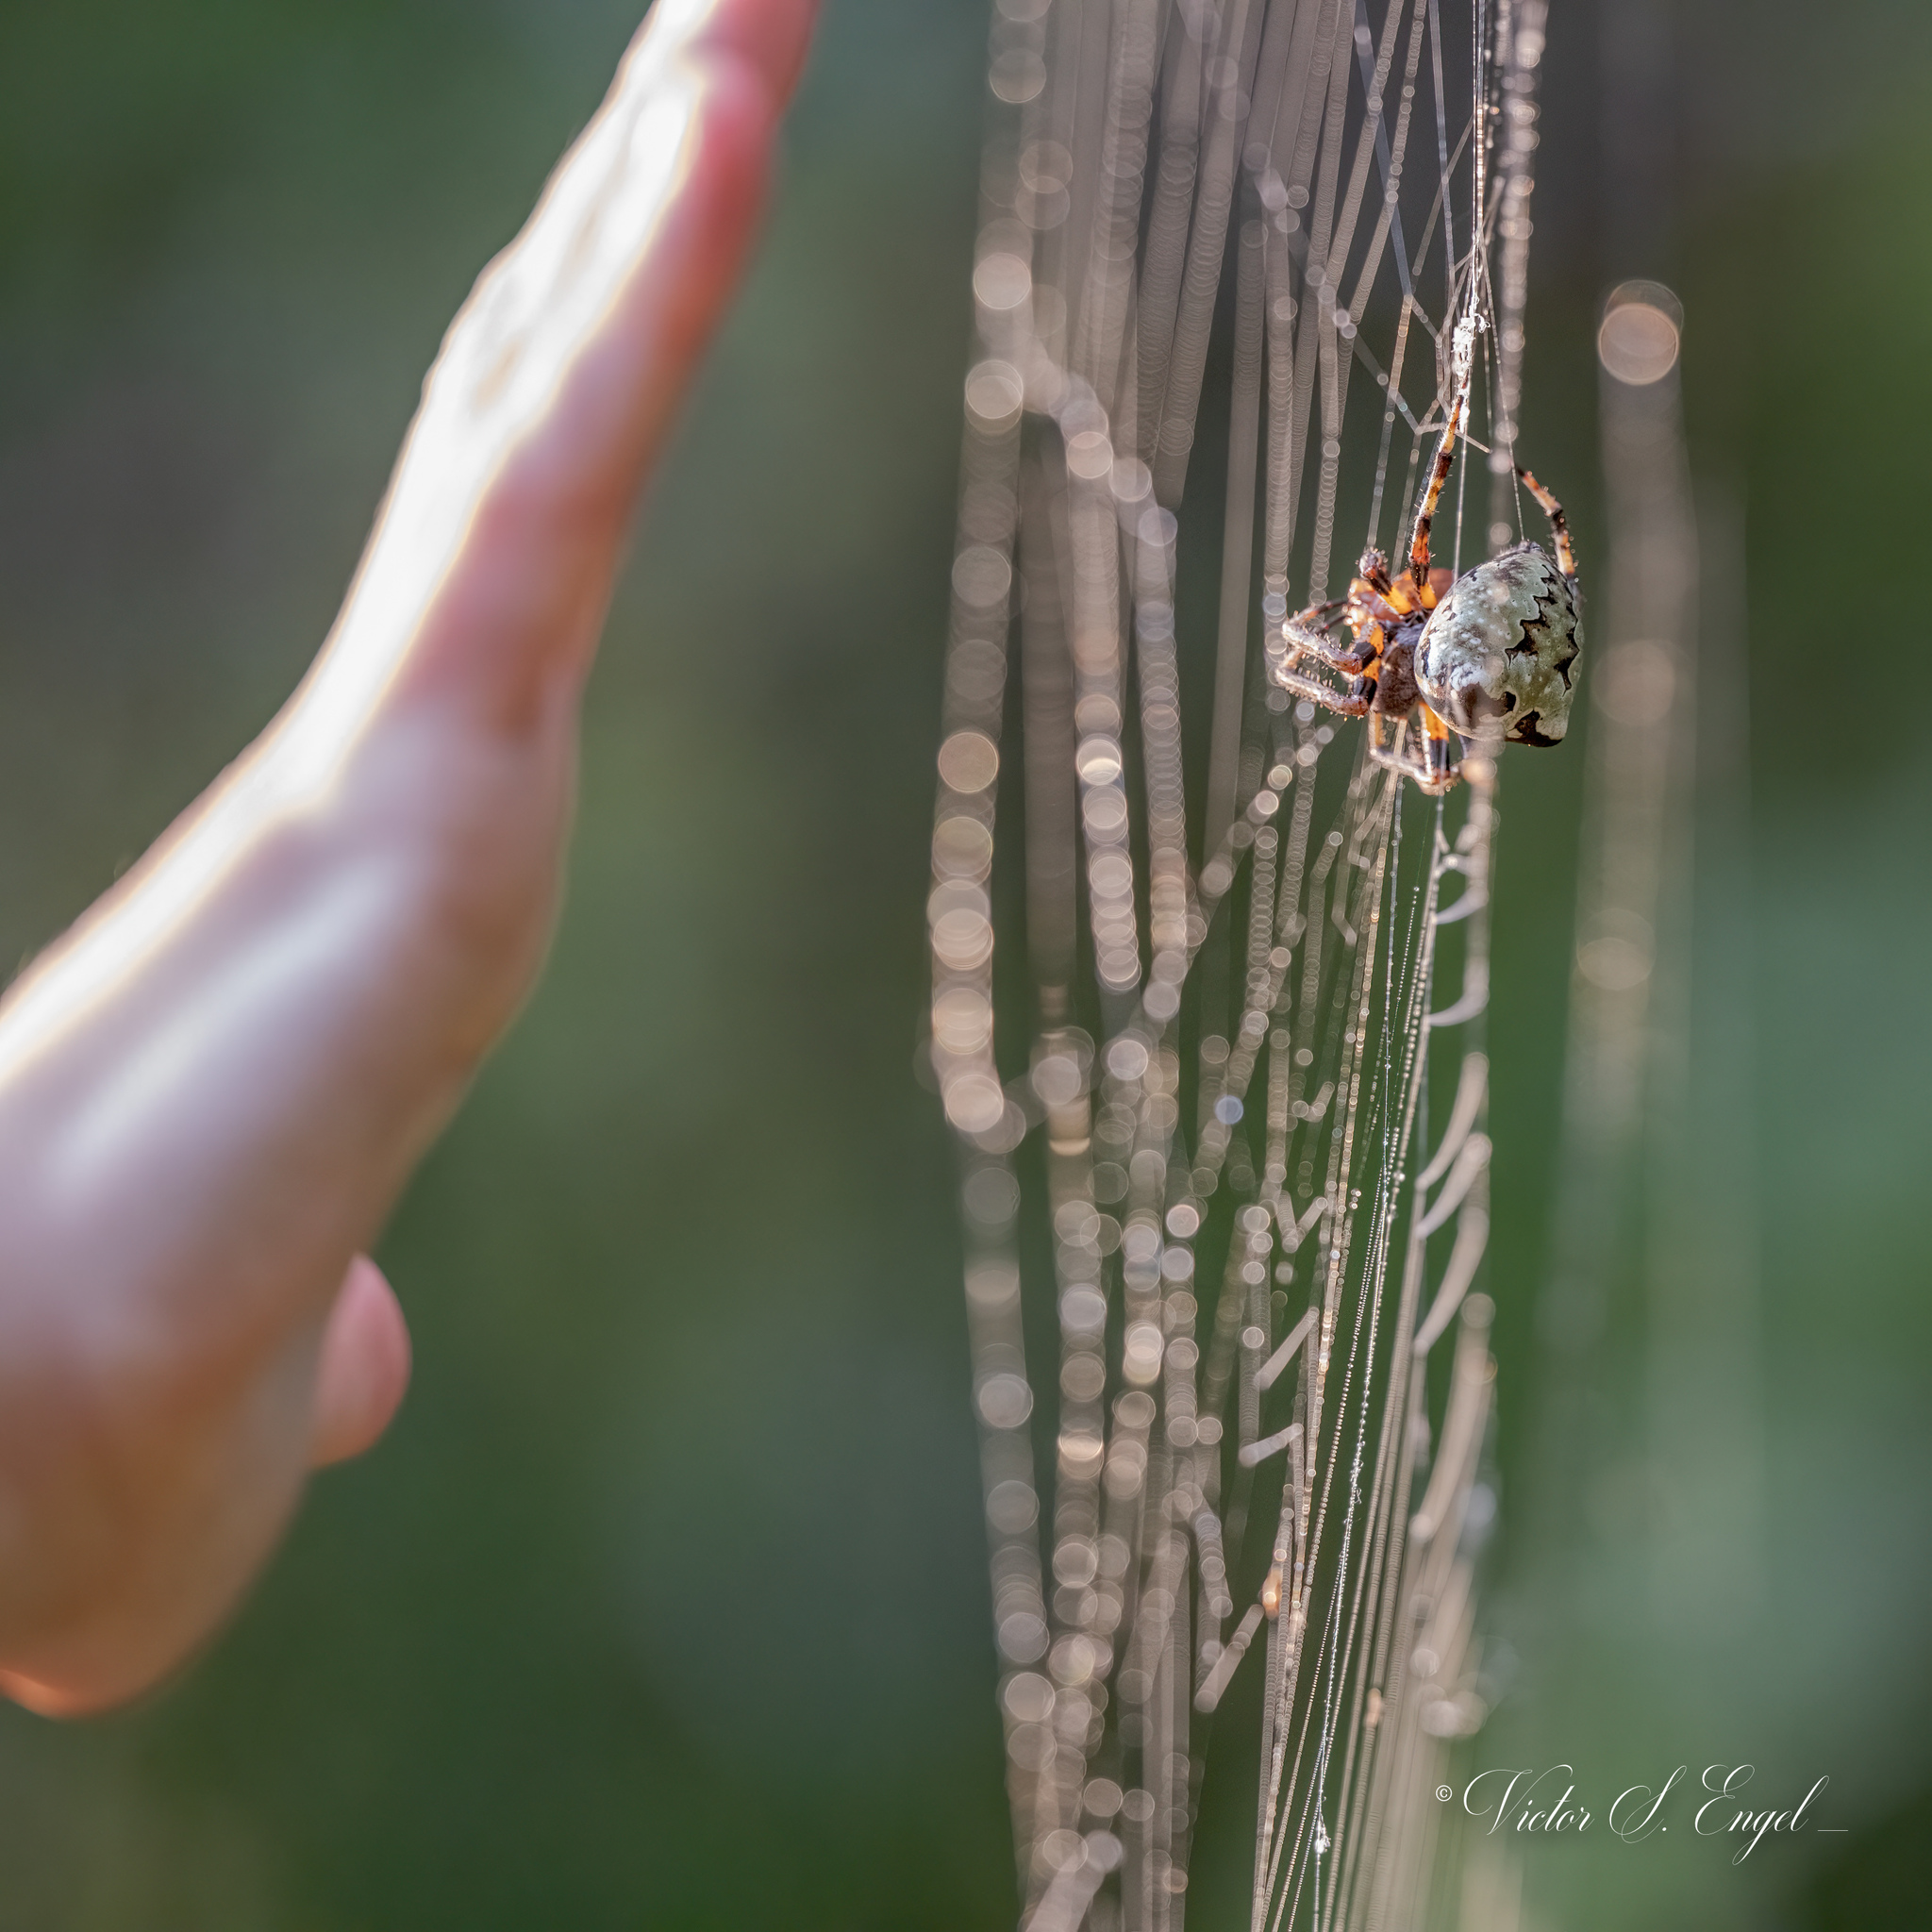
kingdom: Animalia
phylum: Arthropoda
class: Arachnida
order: Araneae
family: Araneidae
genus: Araneus
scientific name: Araneus bicentenarius
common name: Giant lichen orbweaver
